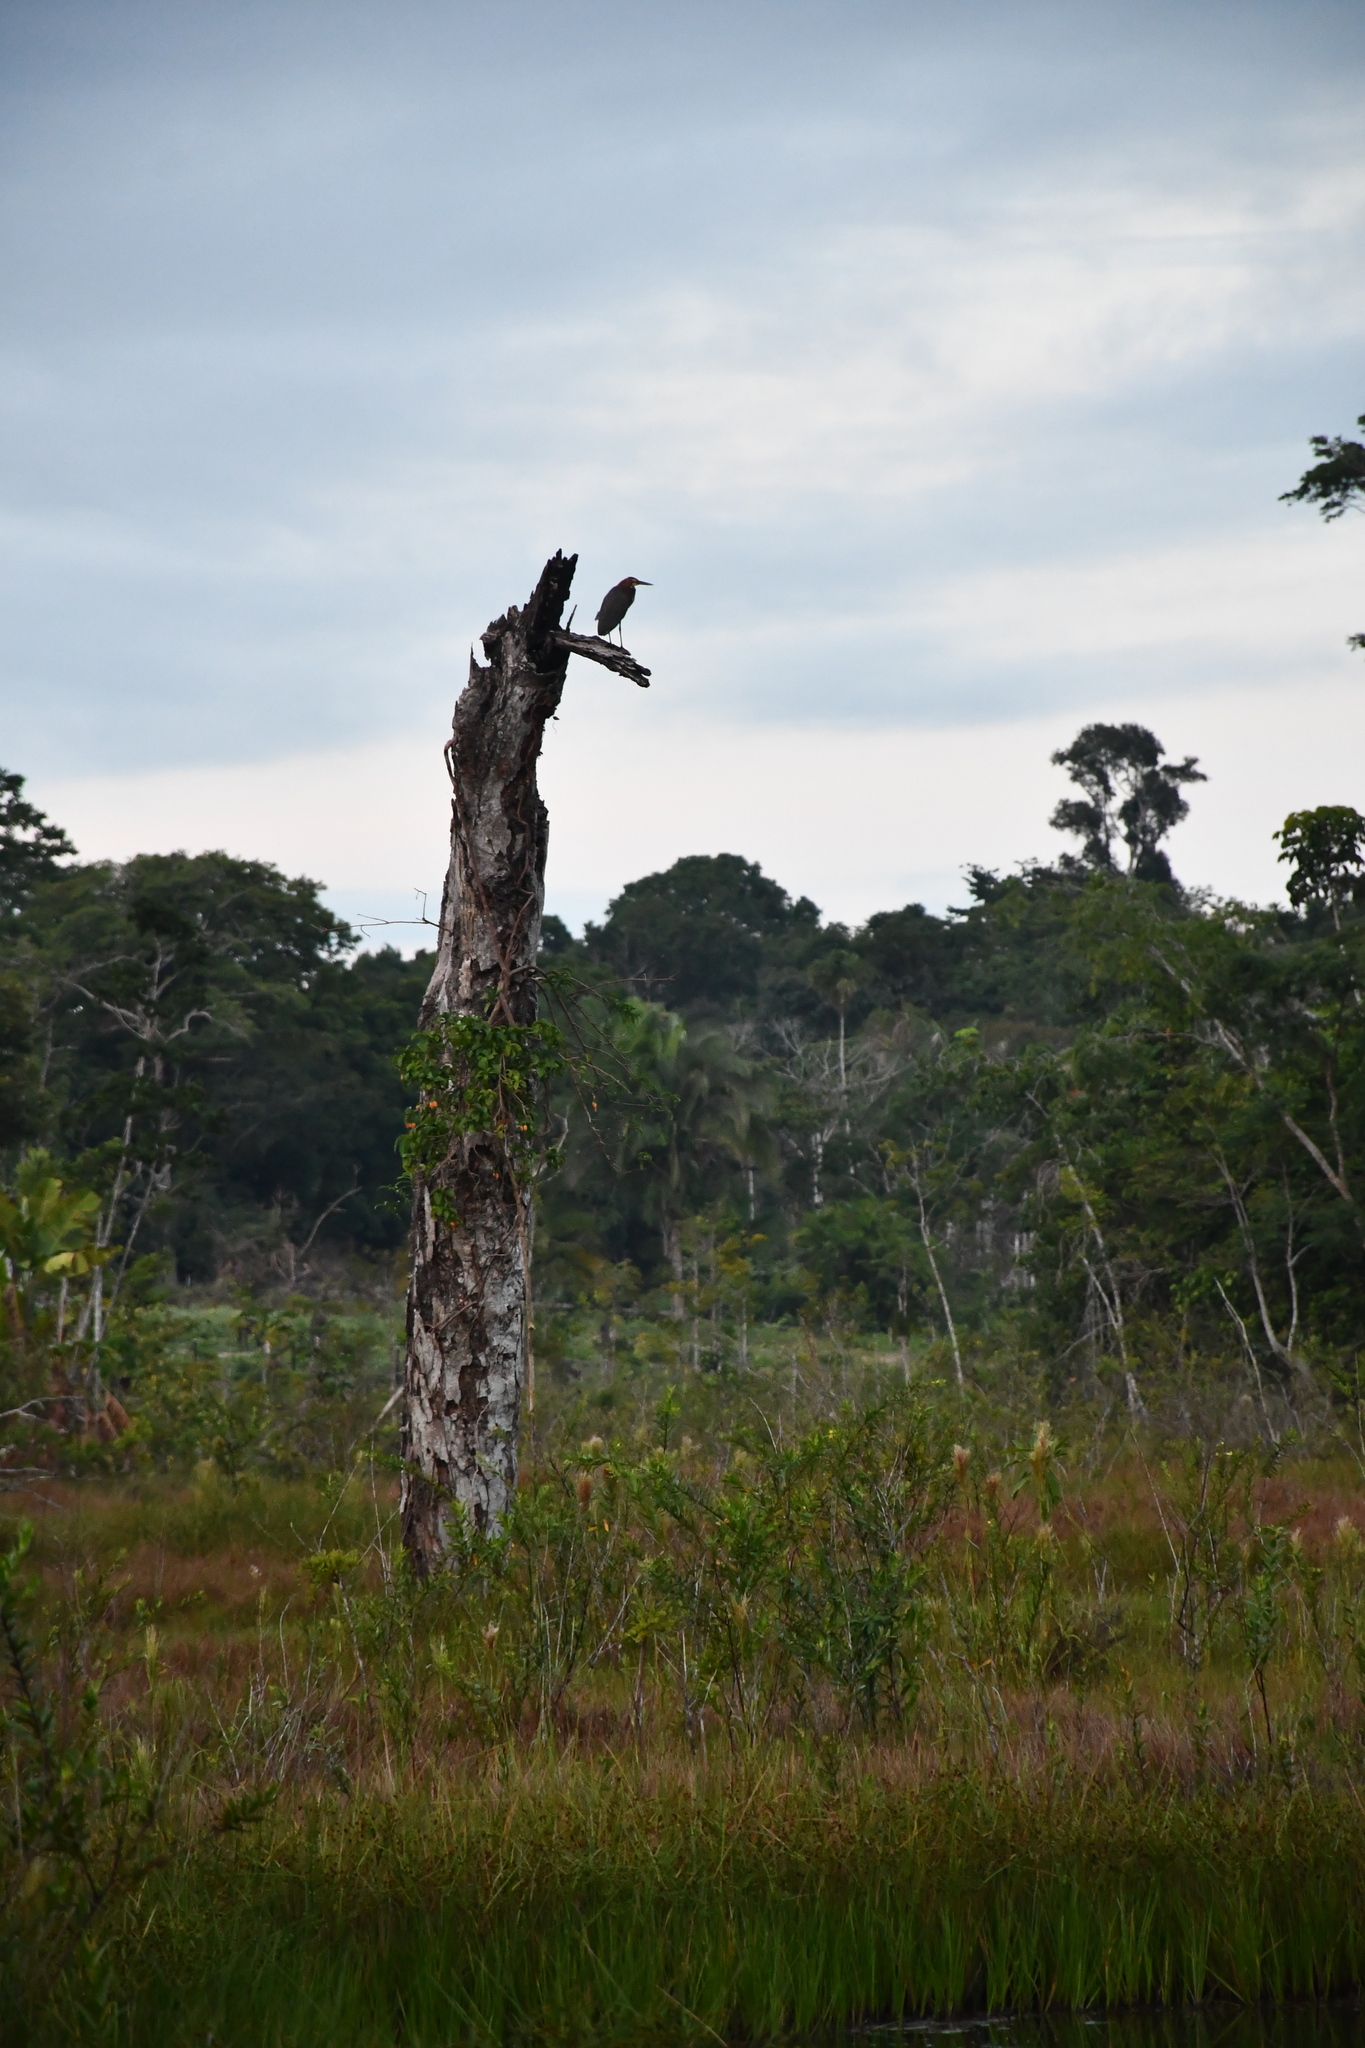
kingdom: Animalia
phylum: Chordata
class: Aves
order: Pelecaniformes
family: Ardeidae
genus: Tigrisoma
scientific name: Tigrisoma lineatum
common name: Rufescent tiger-heron
